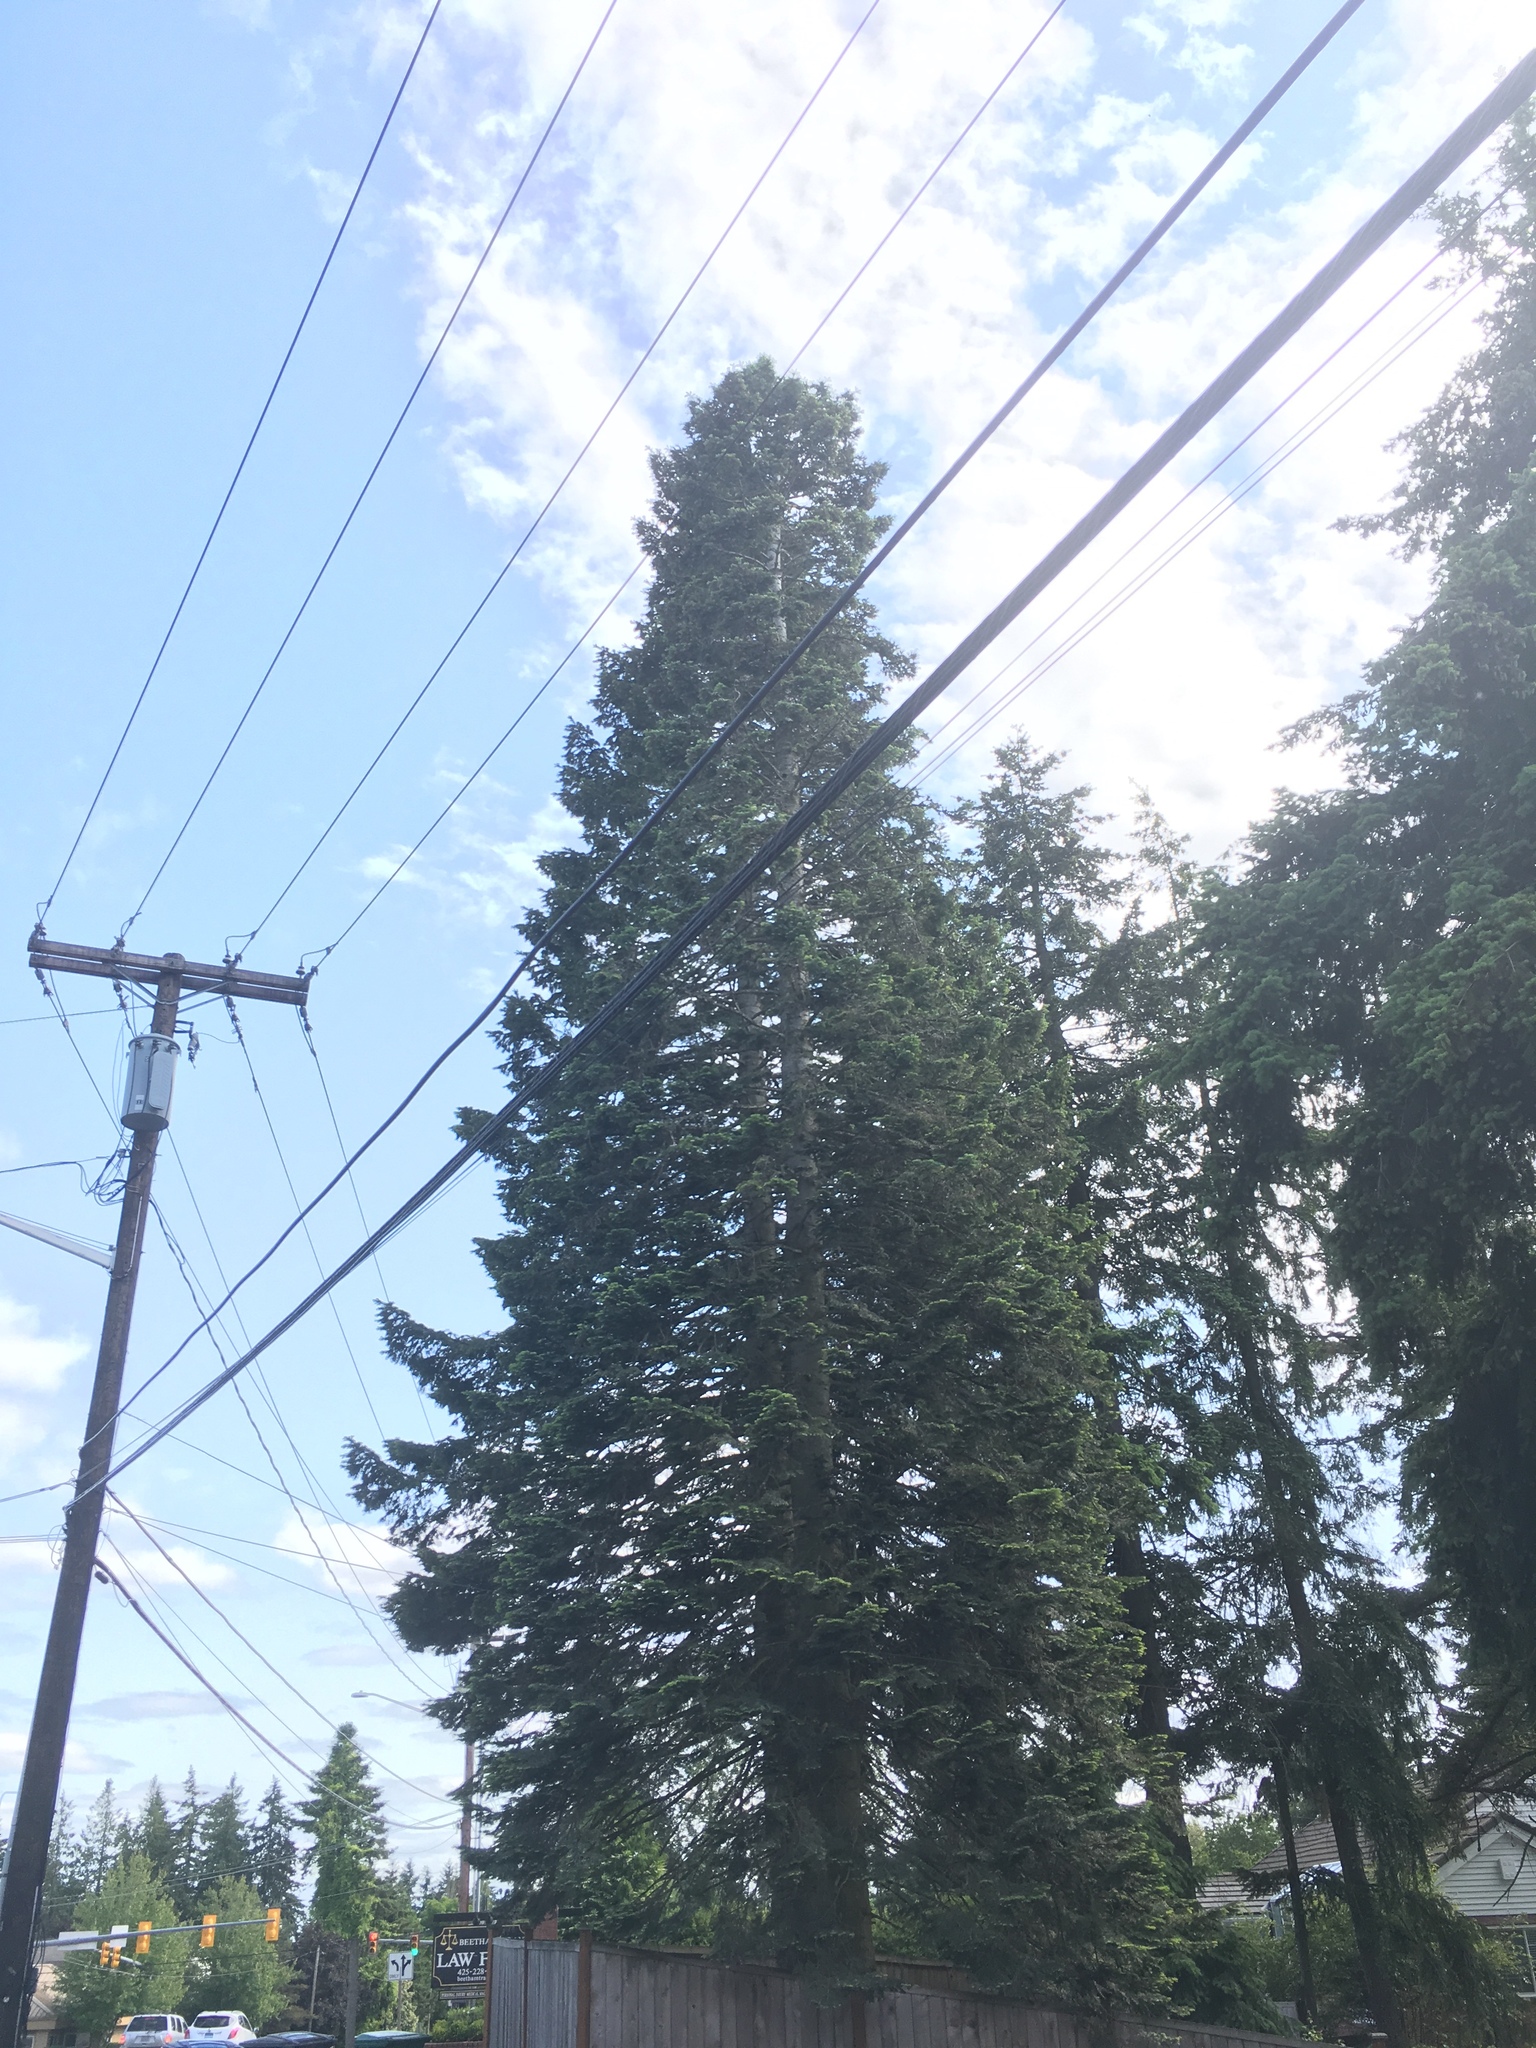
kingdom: Plantae
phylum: Tracheophyta
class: Pinopsida
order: Pinales
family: Pinaceae
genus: Abies
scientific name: Abies grandis
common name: Giant fir
